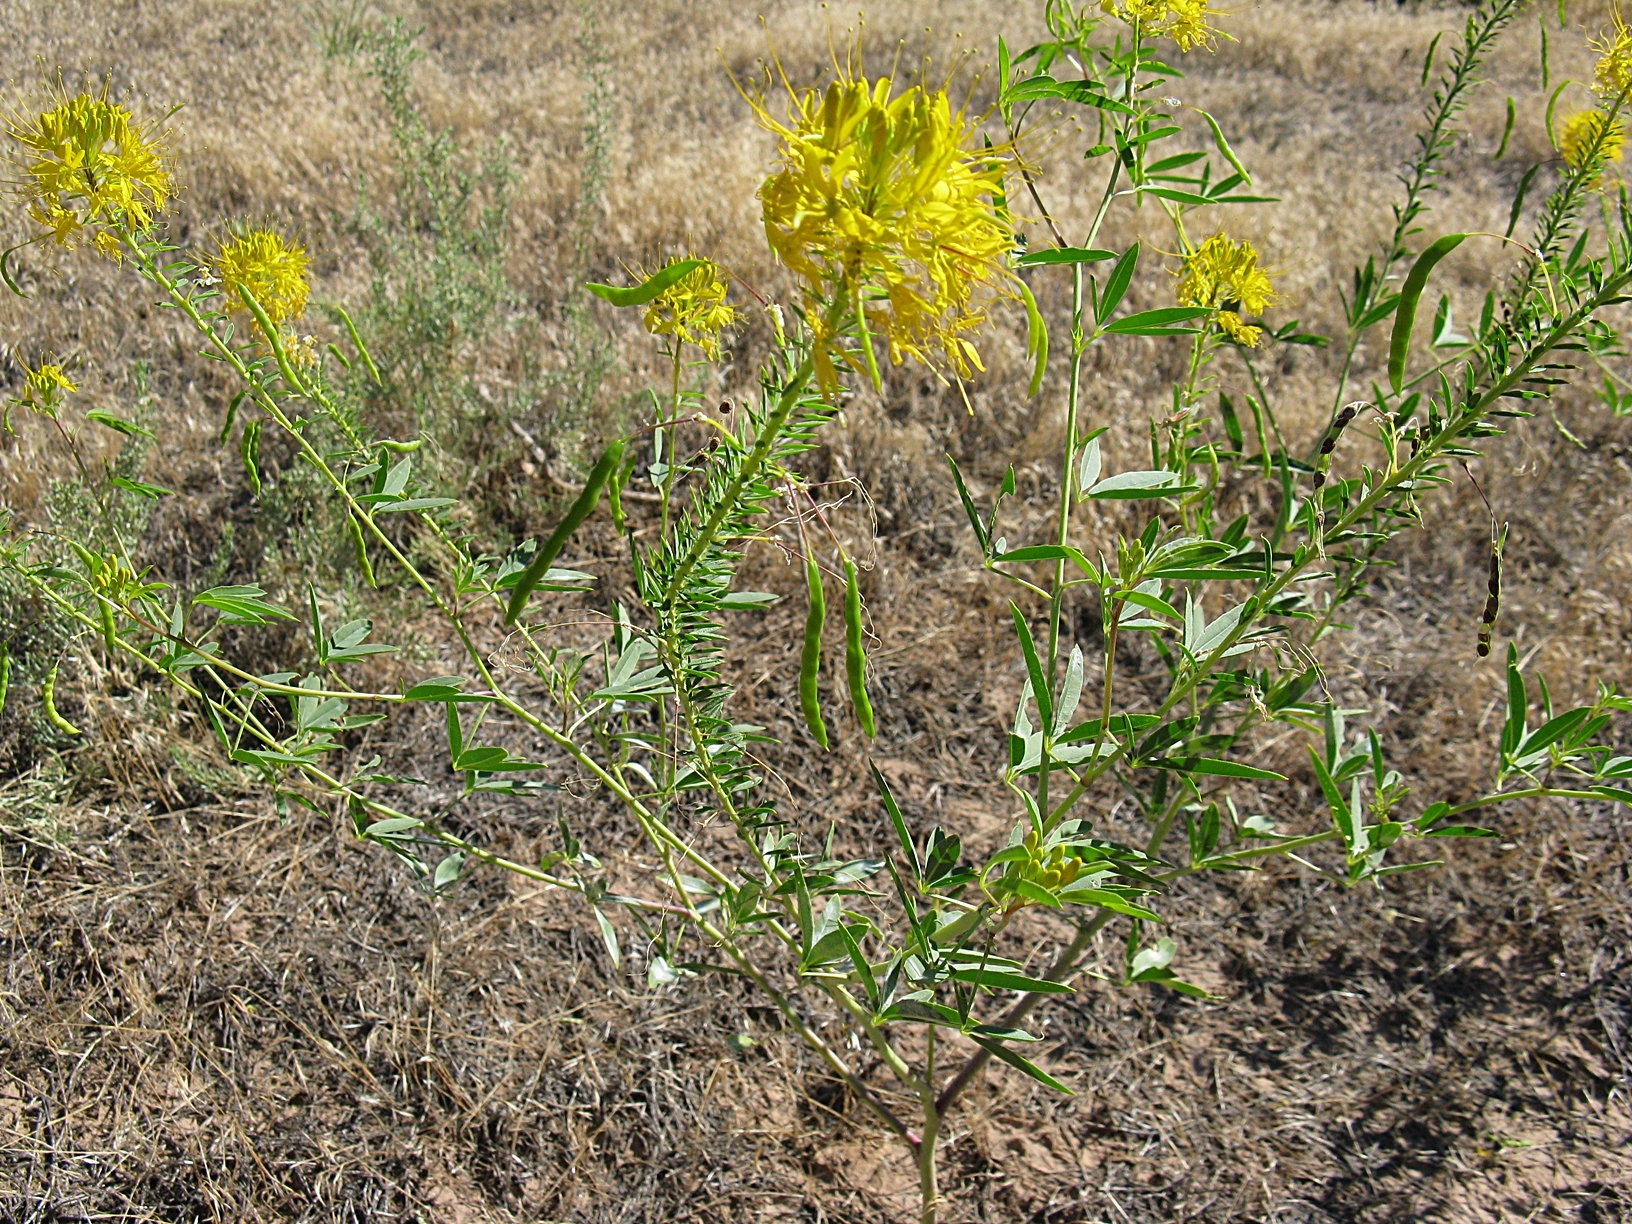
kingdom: Plantae
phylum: Tracheophyta
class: Magnoliopsida
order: Brassicales
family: Cleomaceae
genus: Cleomella
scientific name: Cleomella lutea
